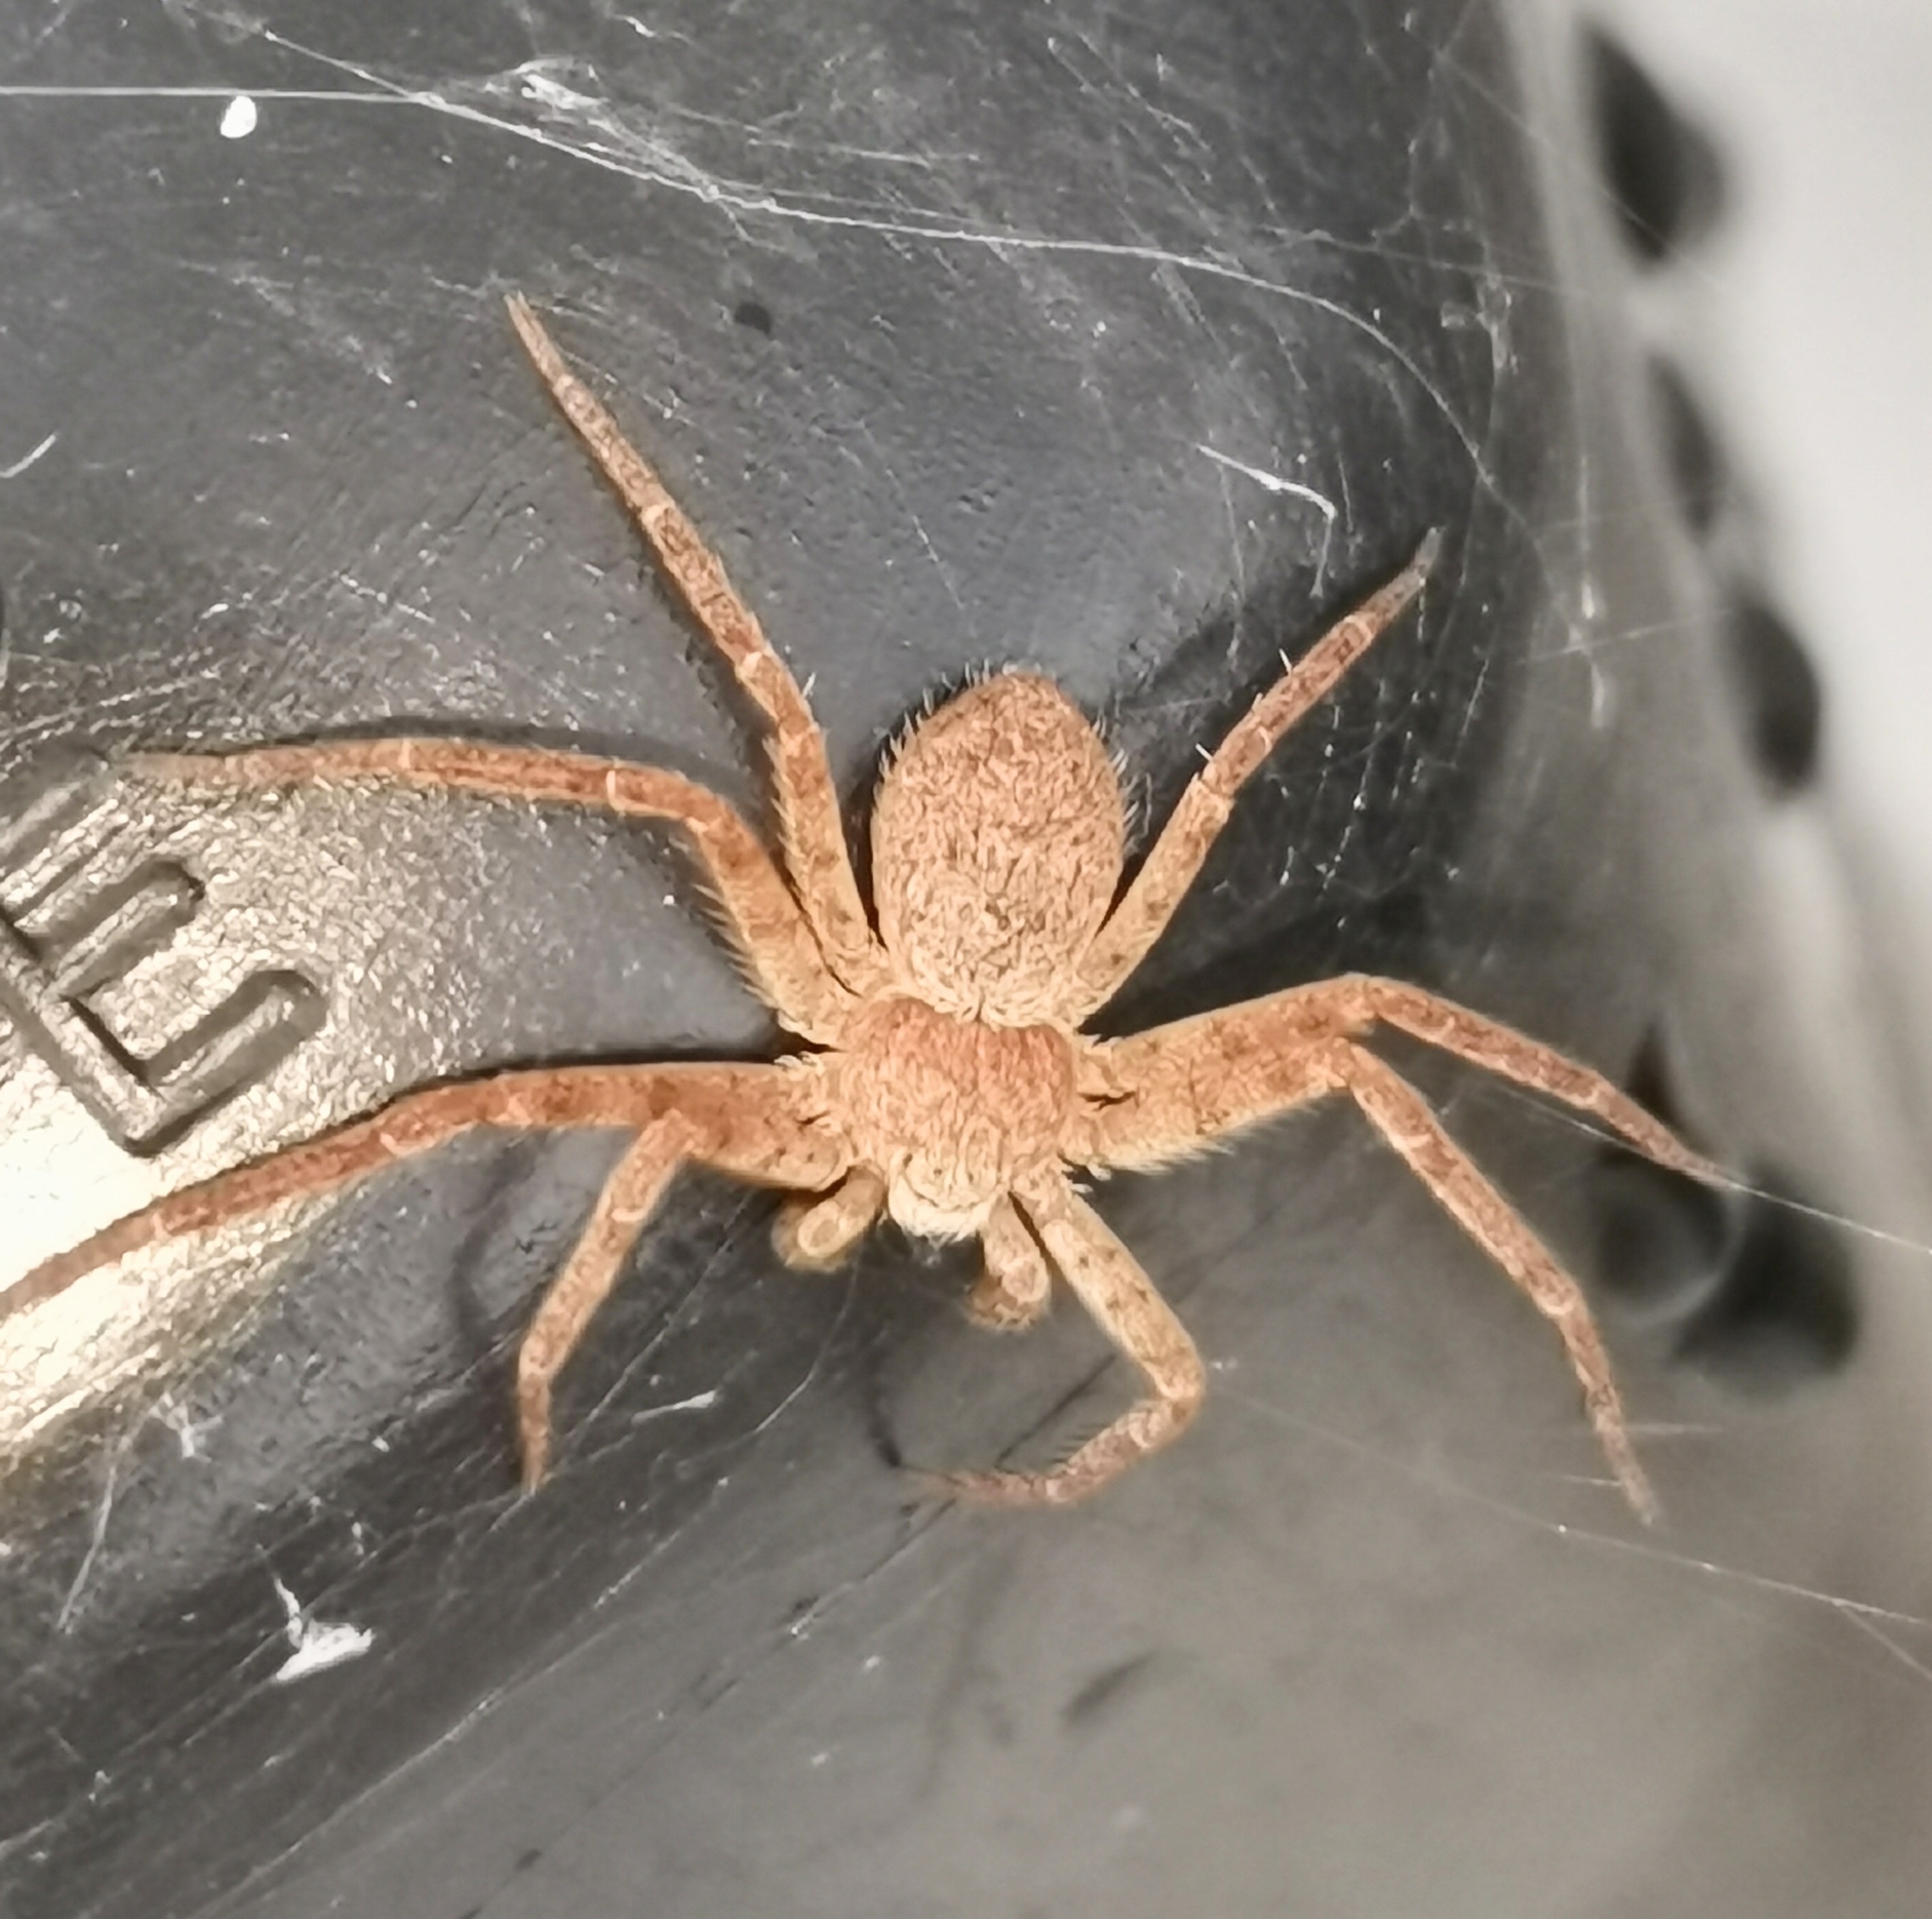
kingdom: Animalia
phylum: Arthropoda
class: Arachnida
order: Araneae
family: Philodromidae
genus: Philodromus
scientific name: Philodromus fuscomarginatus
